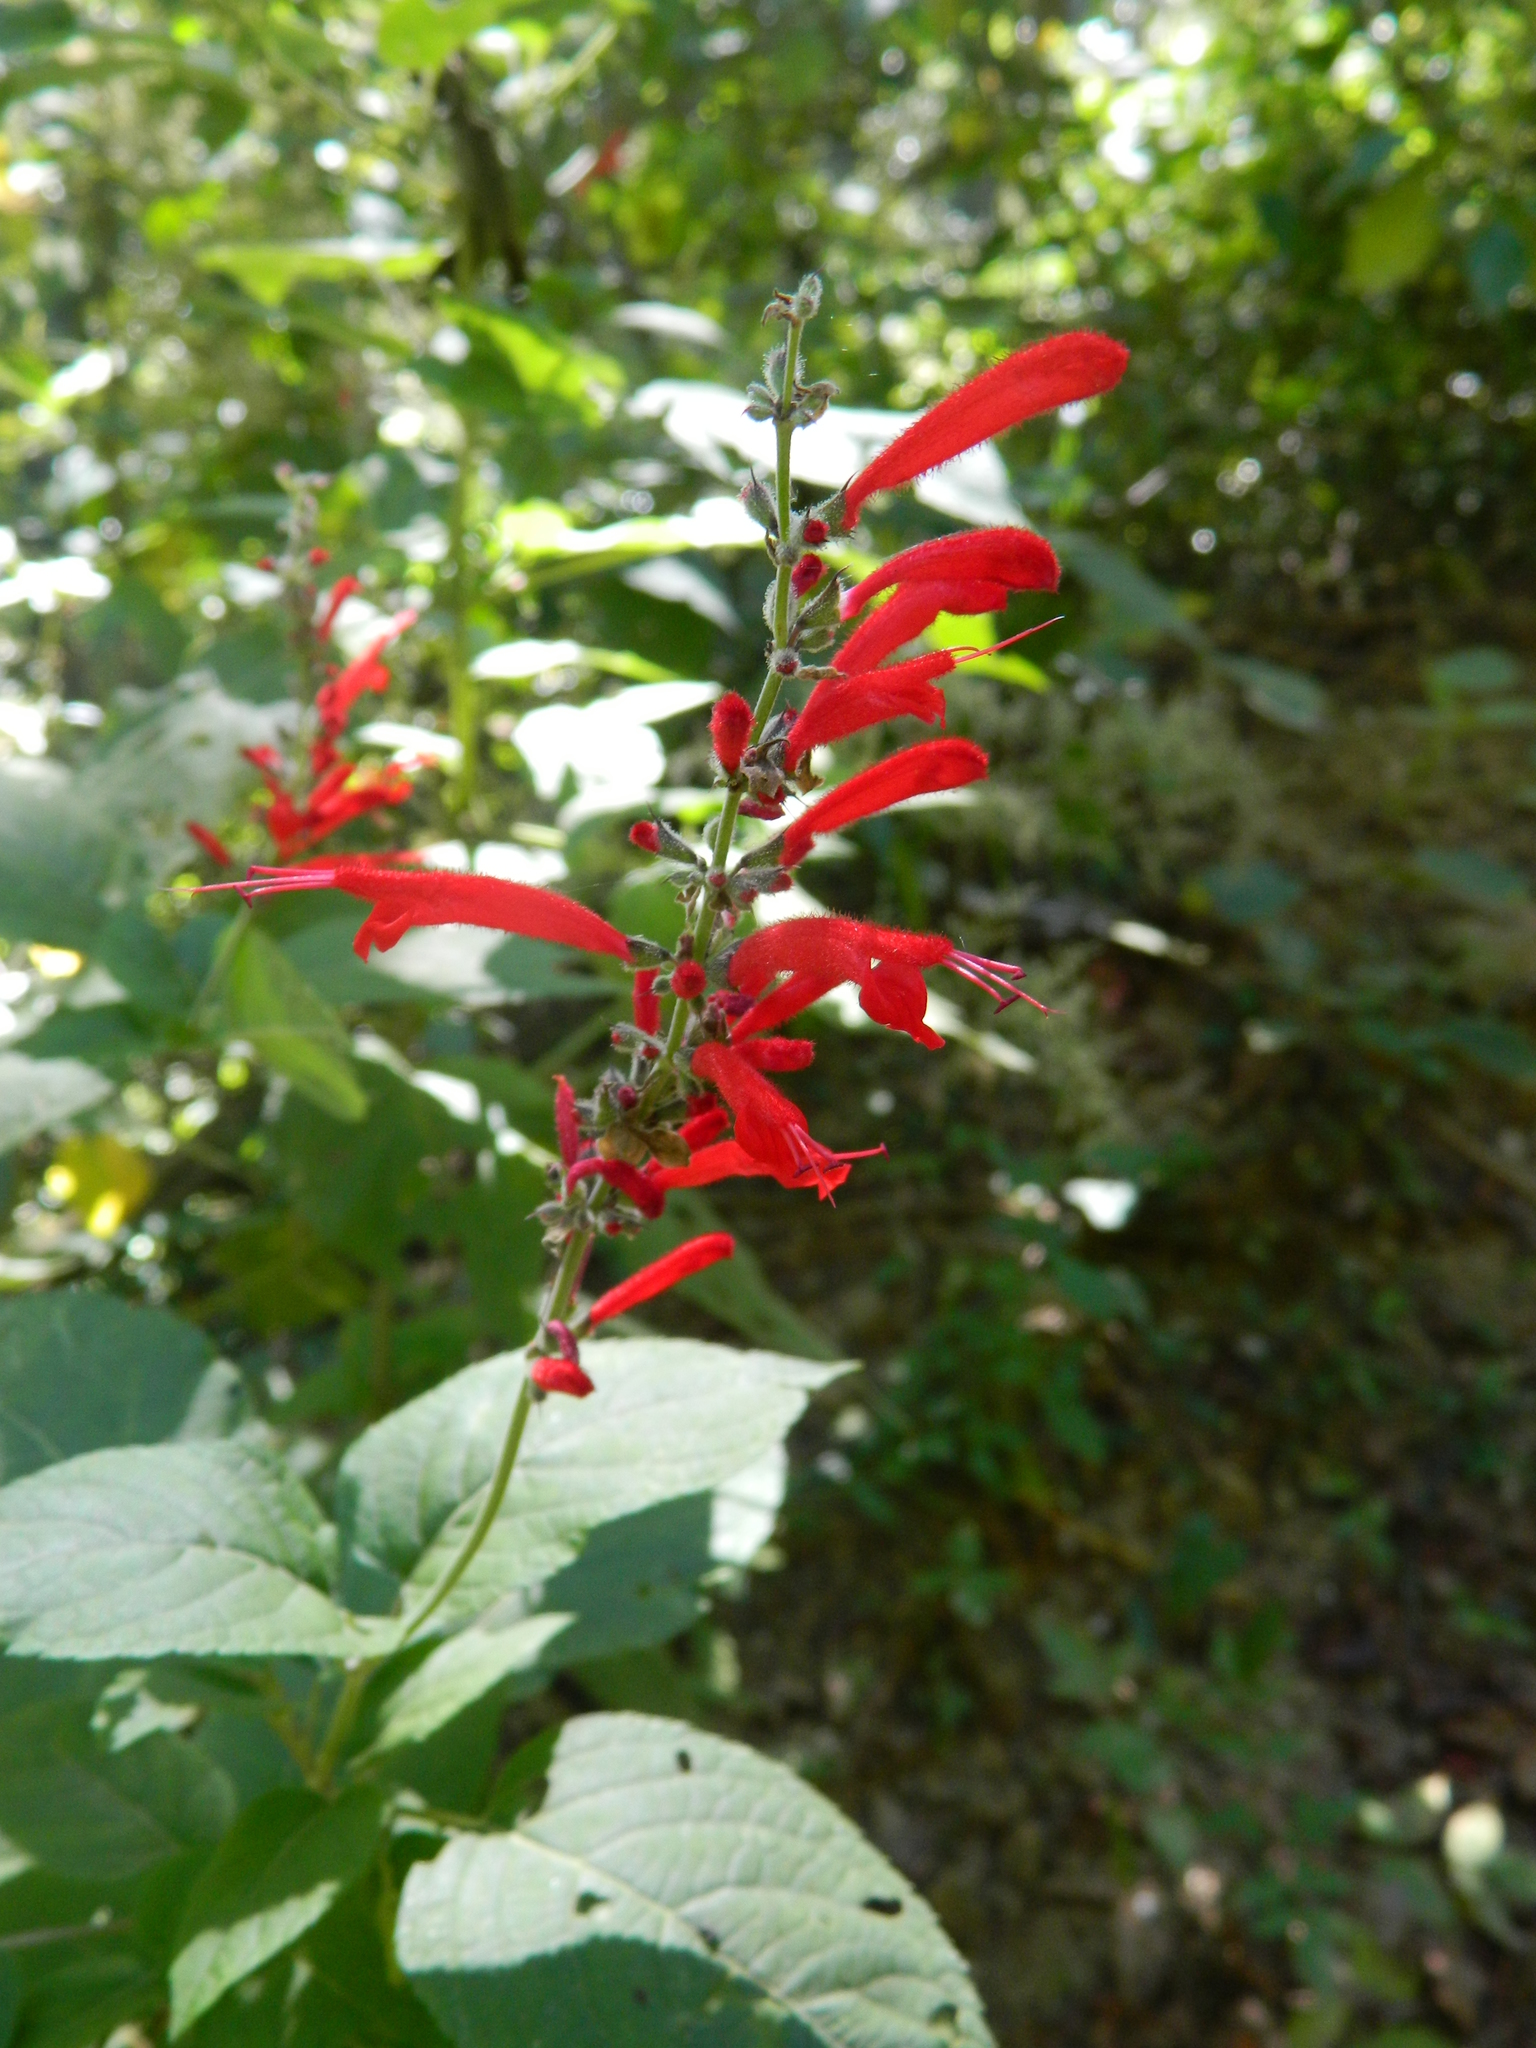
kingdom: Plantae
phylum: Tracheophyta
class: Magnoliopsida
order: Lamiales
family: Lamiaceae
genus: Salvia
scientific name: Salvia cinnabarina
